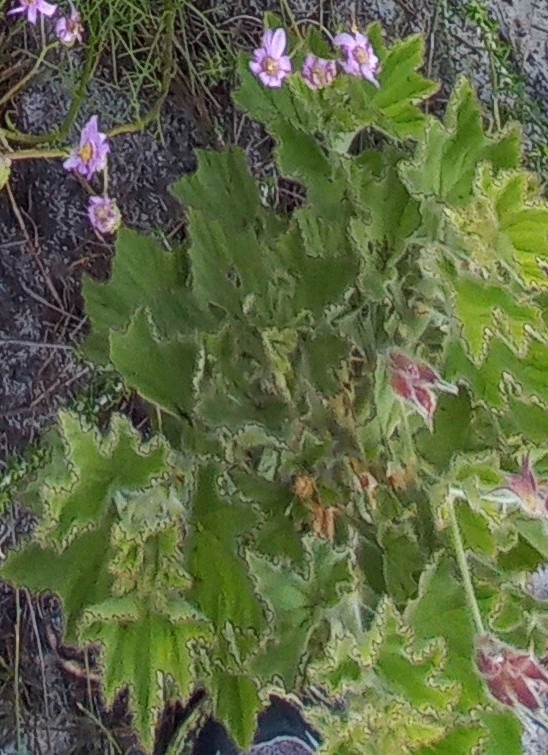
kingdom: Plantae
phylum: Tracheophyta
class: Magnoliopsida
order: Geraniales
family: Geraniaceae
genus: Pelargonium
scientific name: Pelargonium cucullatum
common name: Tree pelargonium
